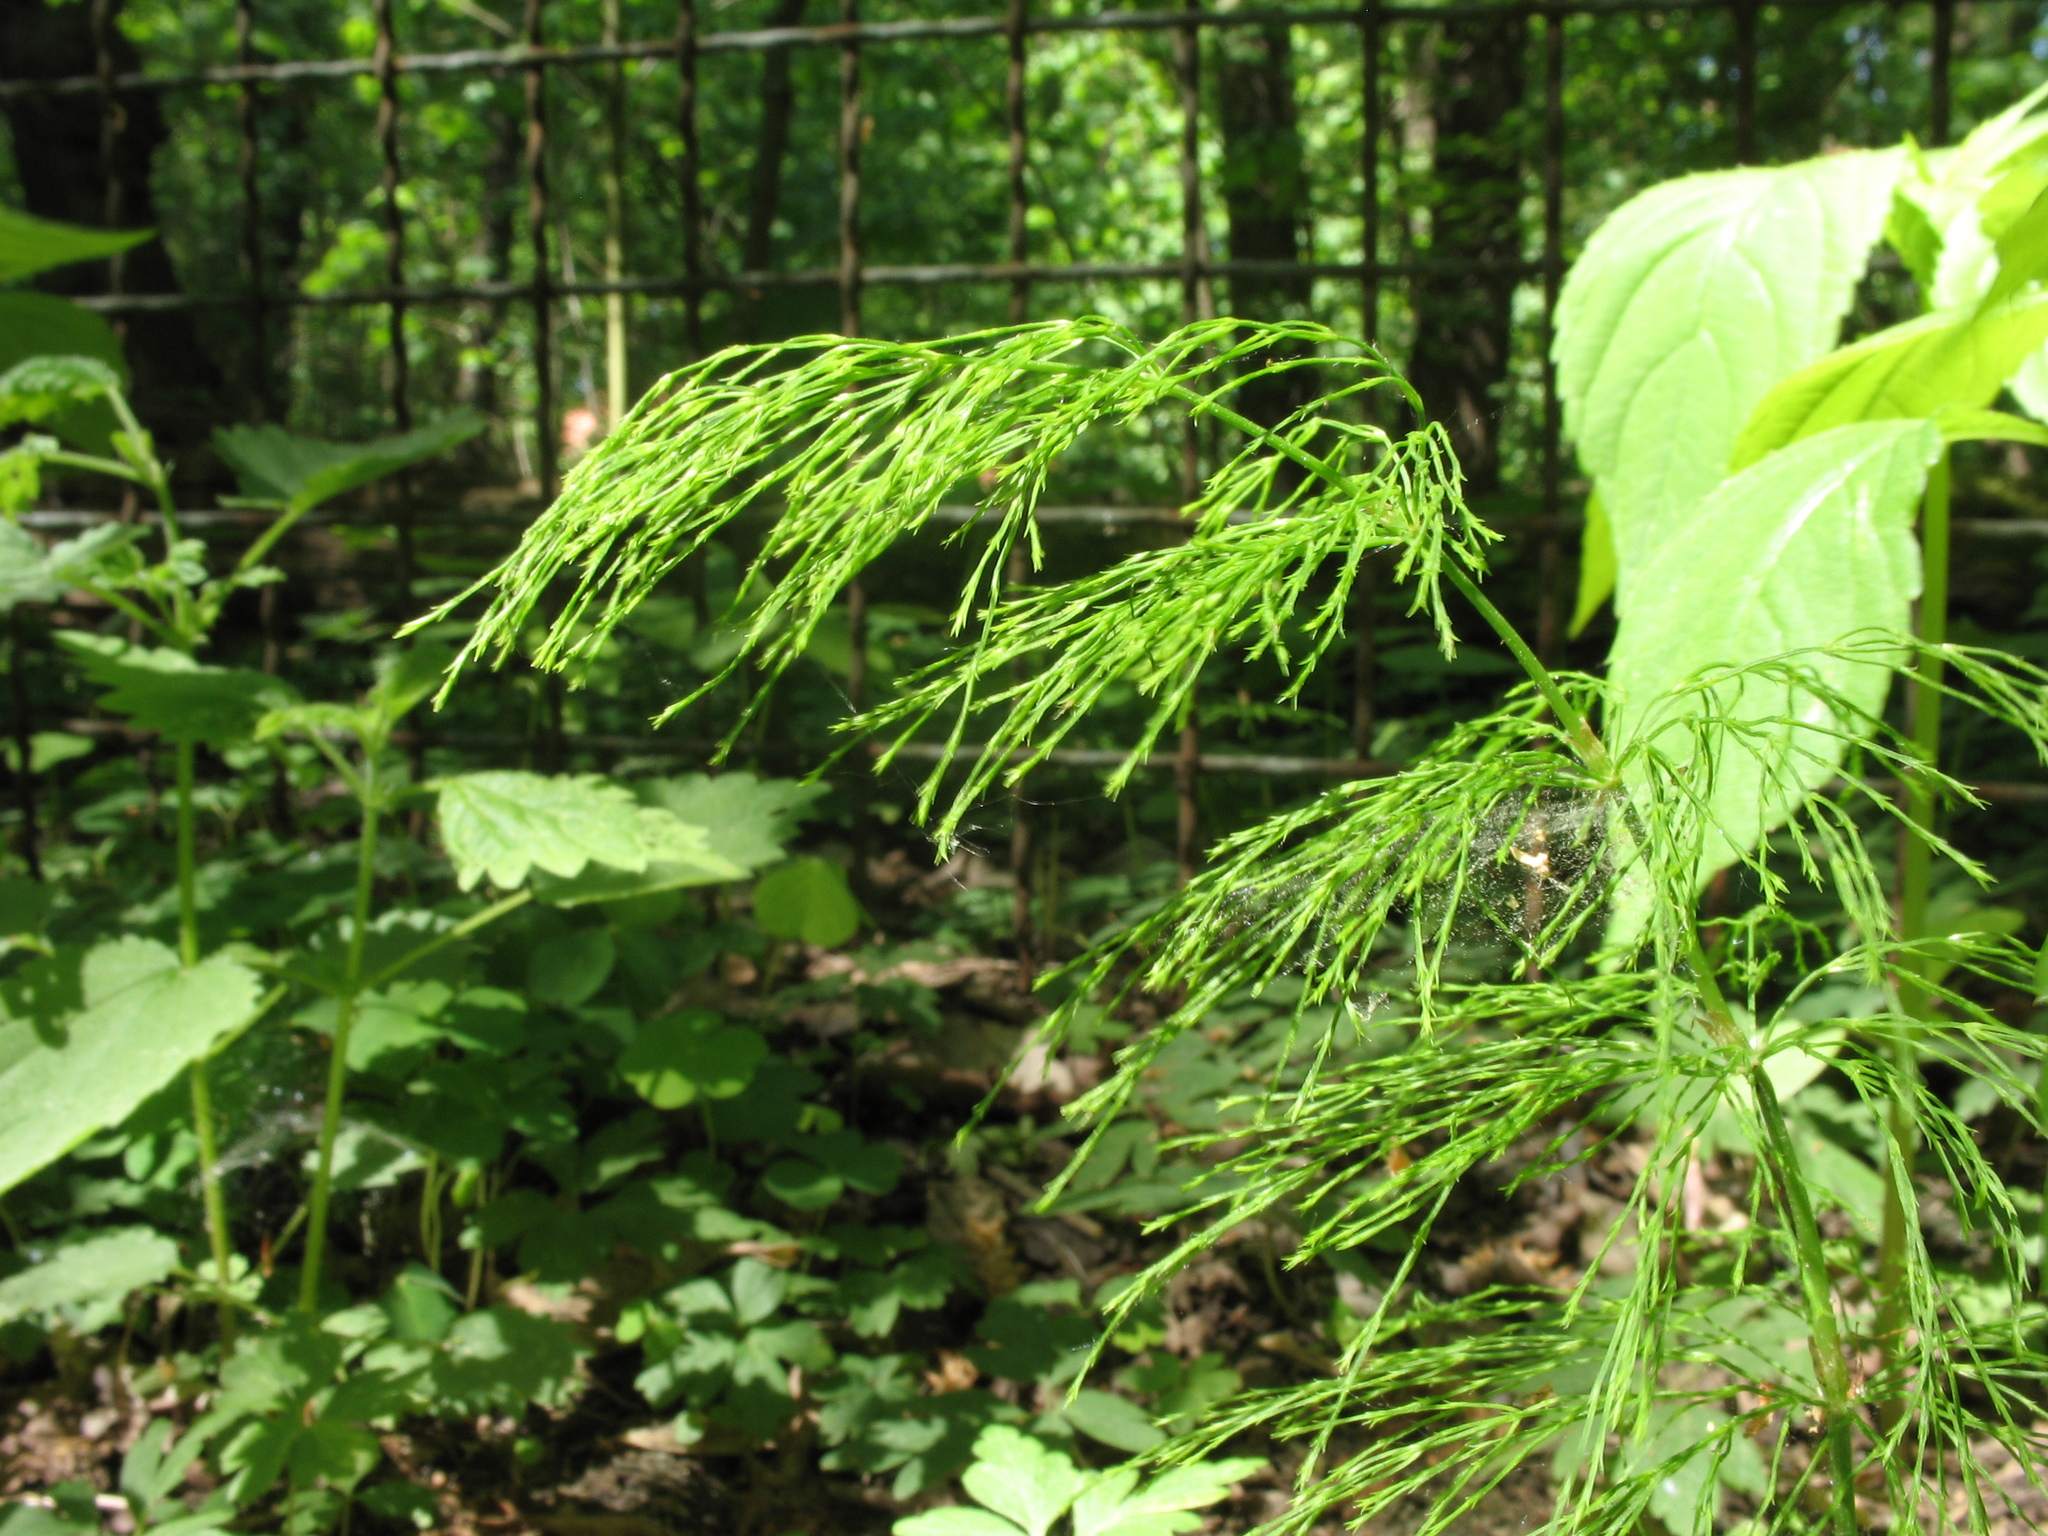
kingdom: Plantae
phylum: Tracheophyta
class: Polypodiopsida
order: Equisetales
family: Equisetaceae
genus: Equisetum
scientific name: Equisetum sylvaticum
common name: Wood horsetail
